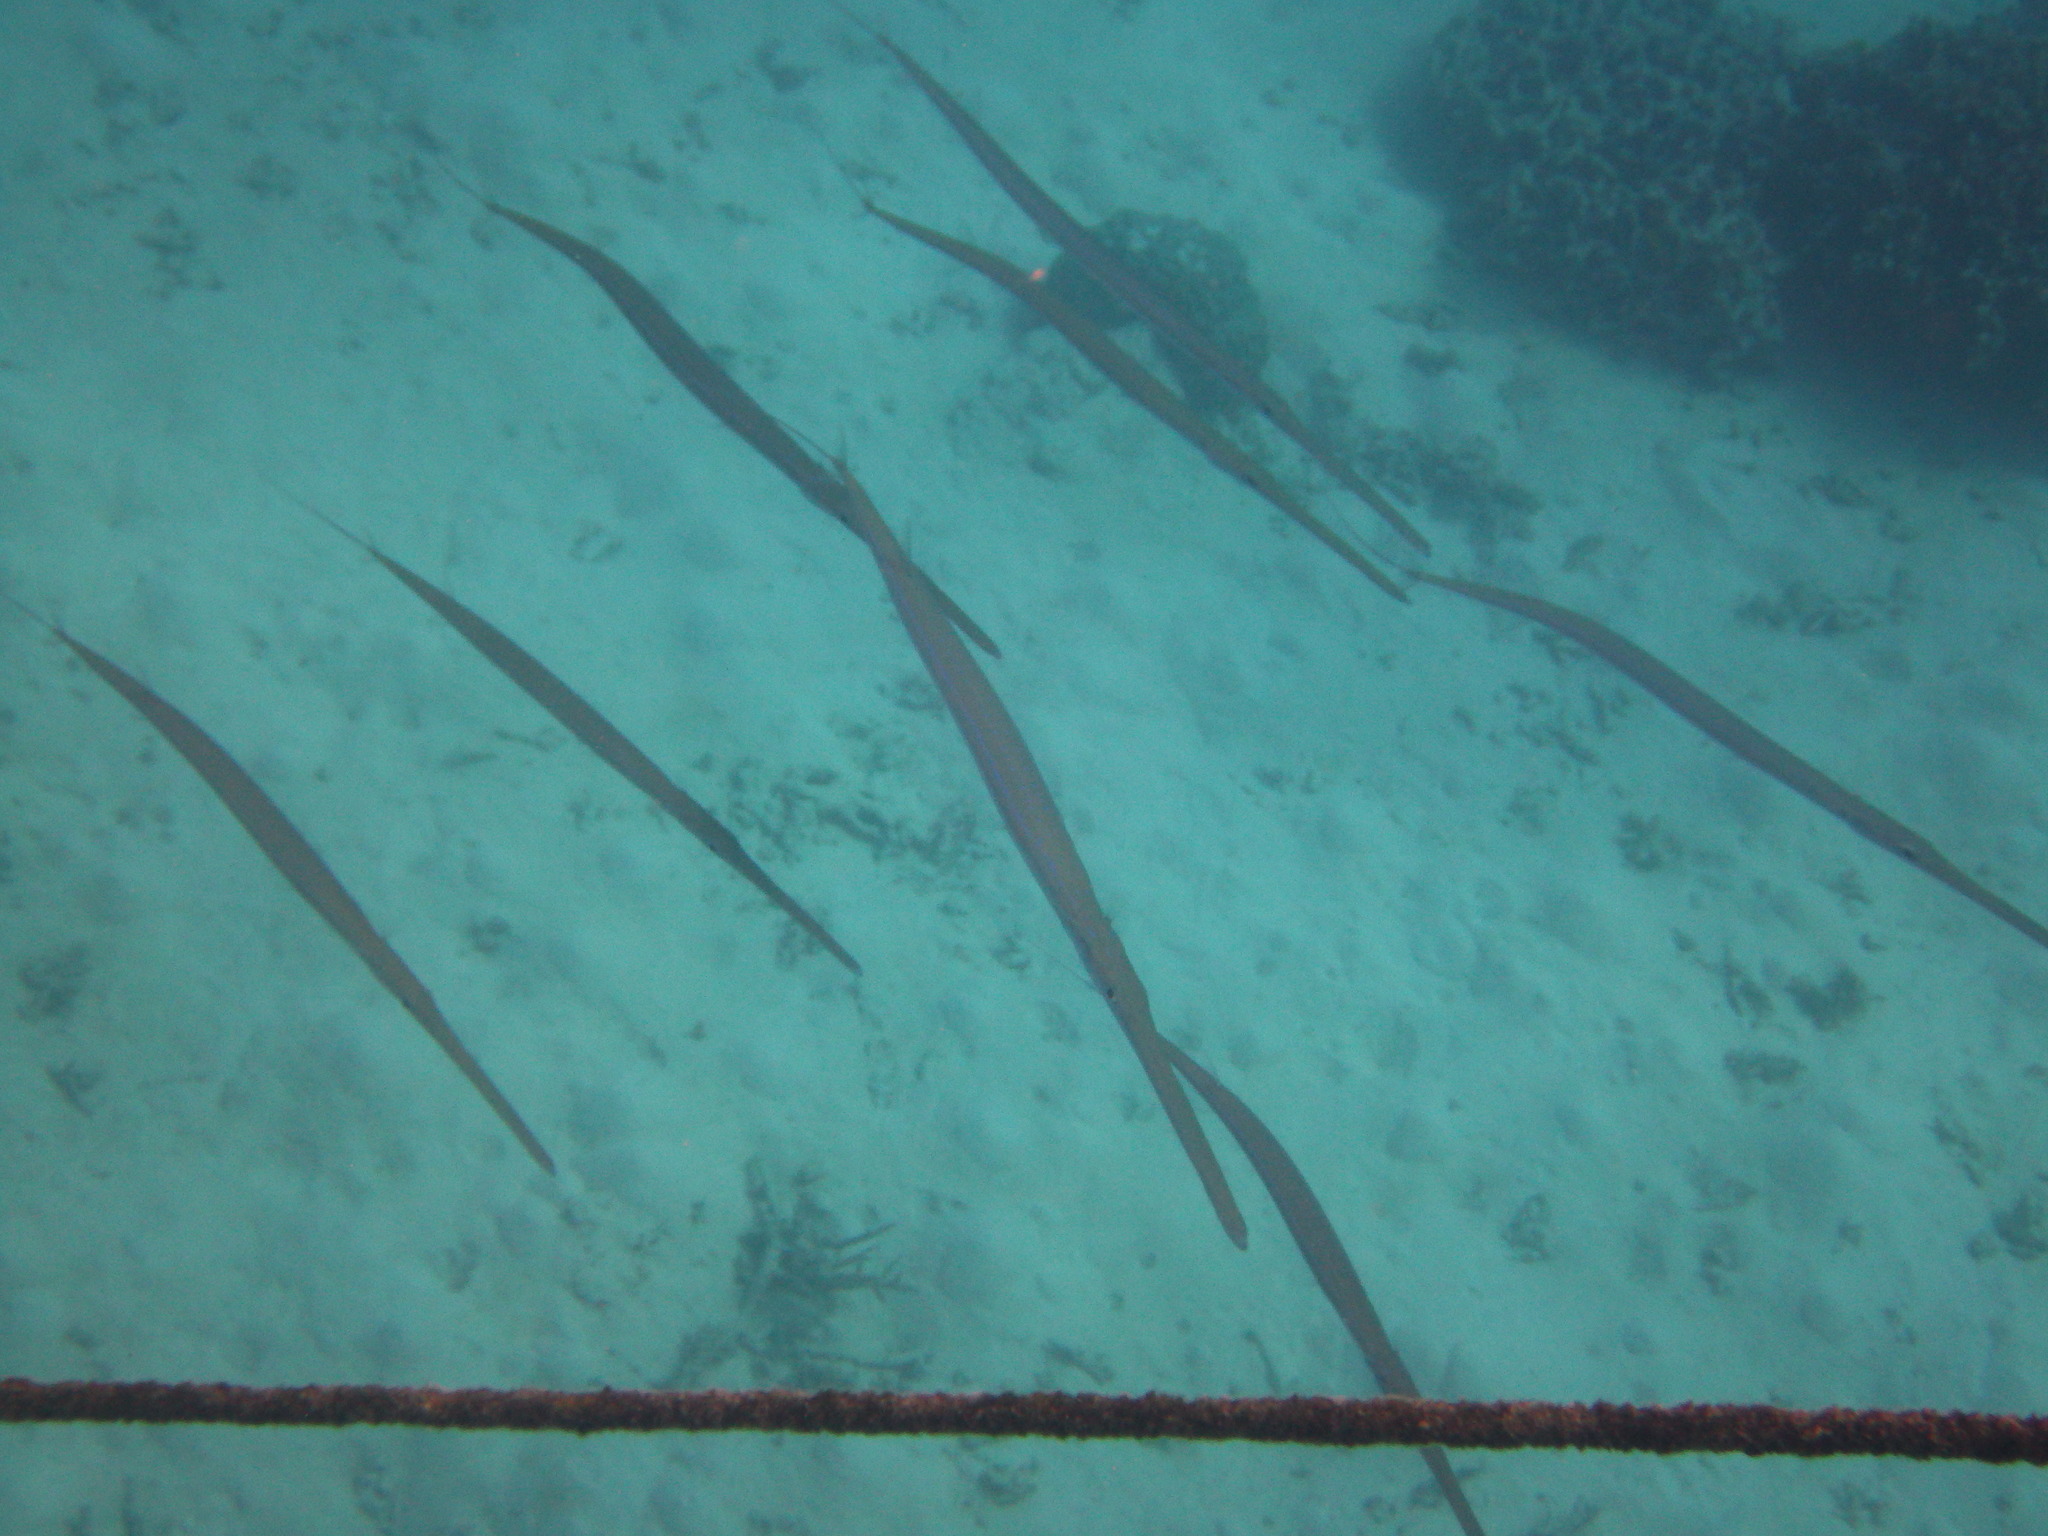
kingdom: Animalia
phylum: Chordata
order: Syngnathiformes
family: Fistulariidae
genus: Fistularia
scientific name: Fistularia commersonii
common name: Bluespotted cornetfish
